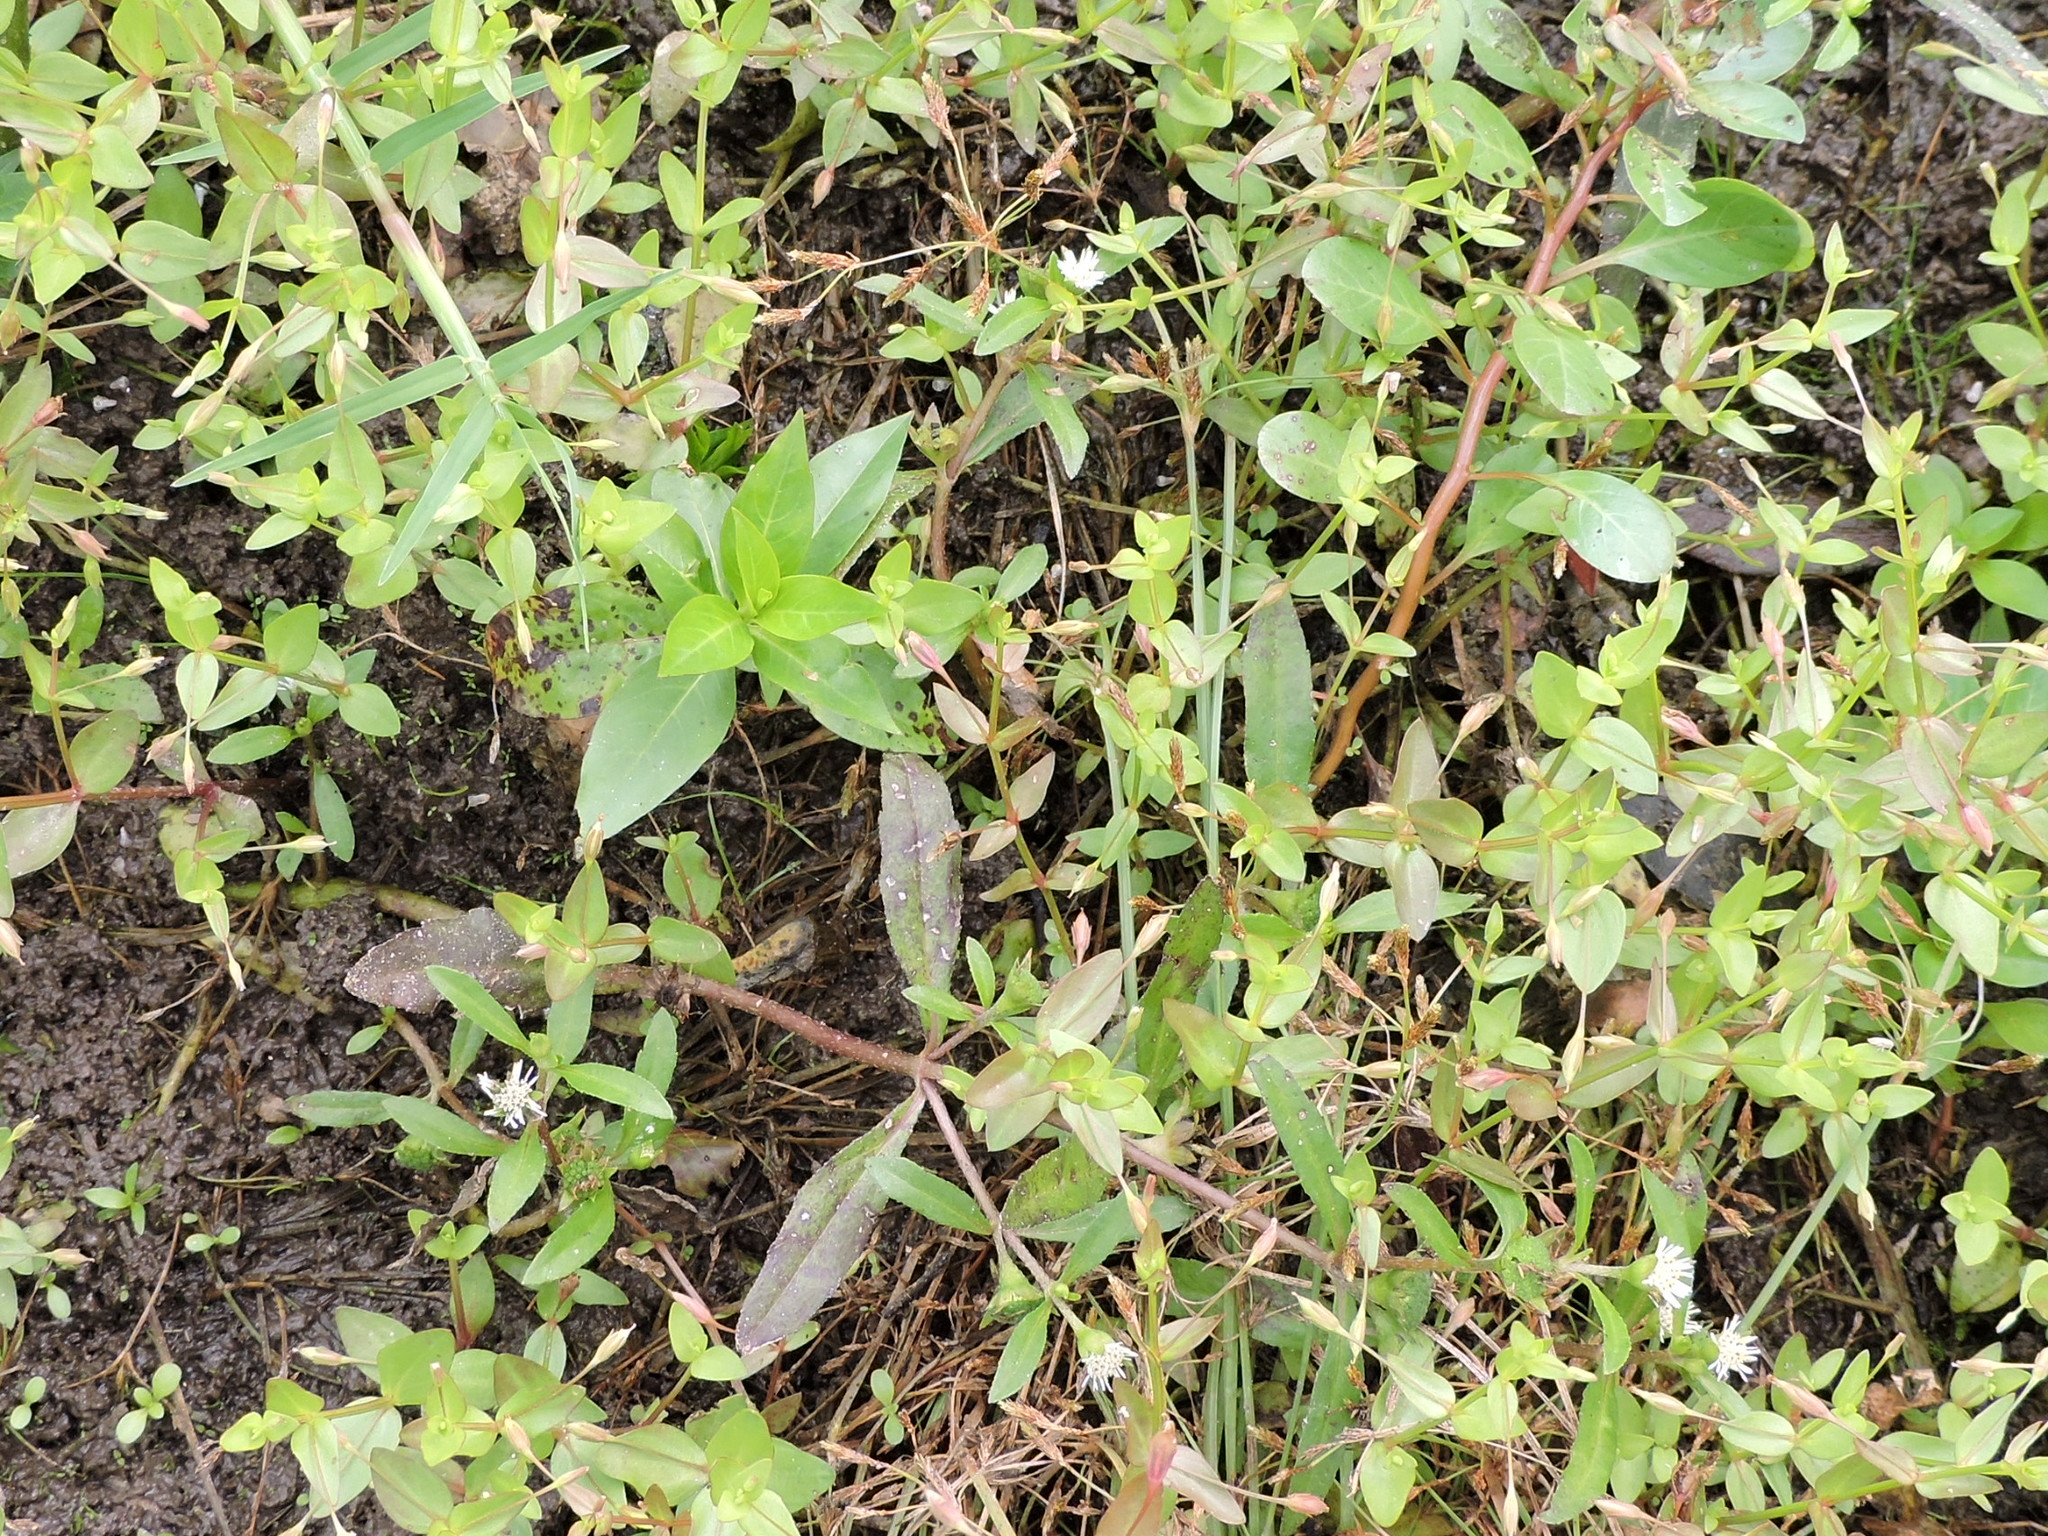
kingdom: Plantae
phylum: Tracheophyta
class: Magnoliopsida
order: Asterales
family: Asteraceae
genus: Eclipta
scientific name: Eclipta prostrata
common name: False daisy
